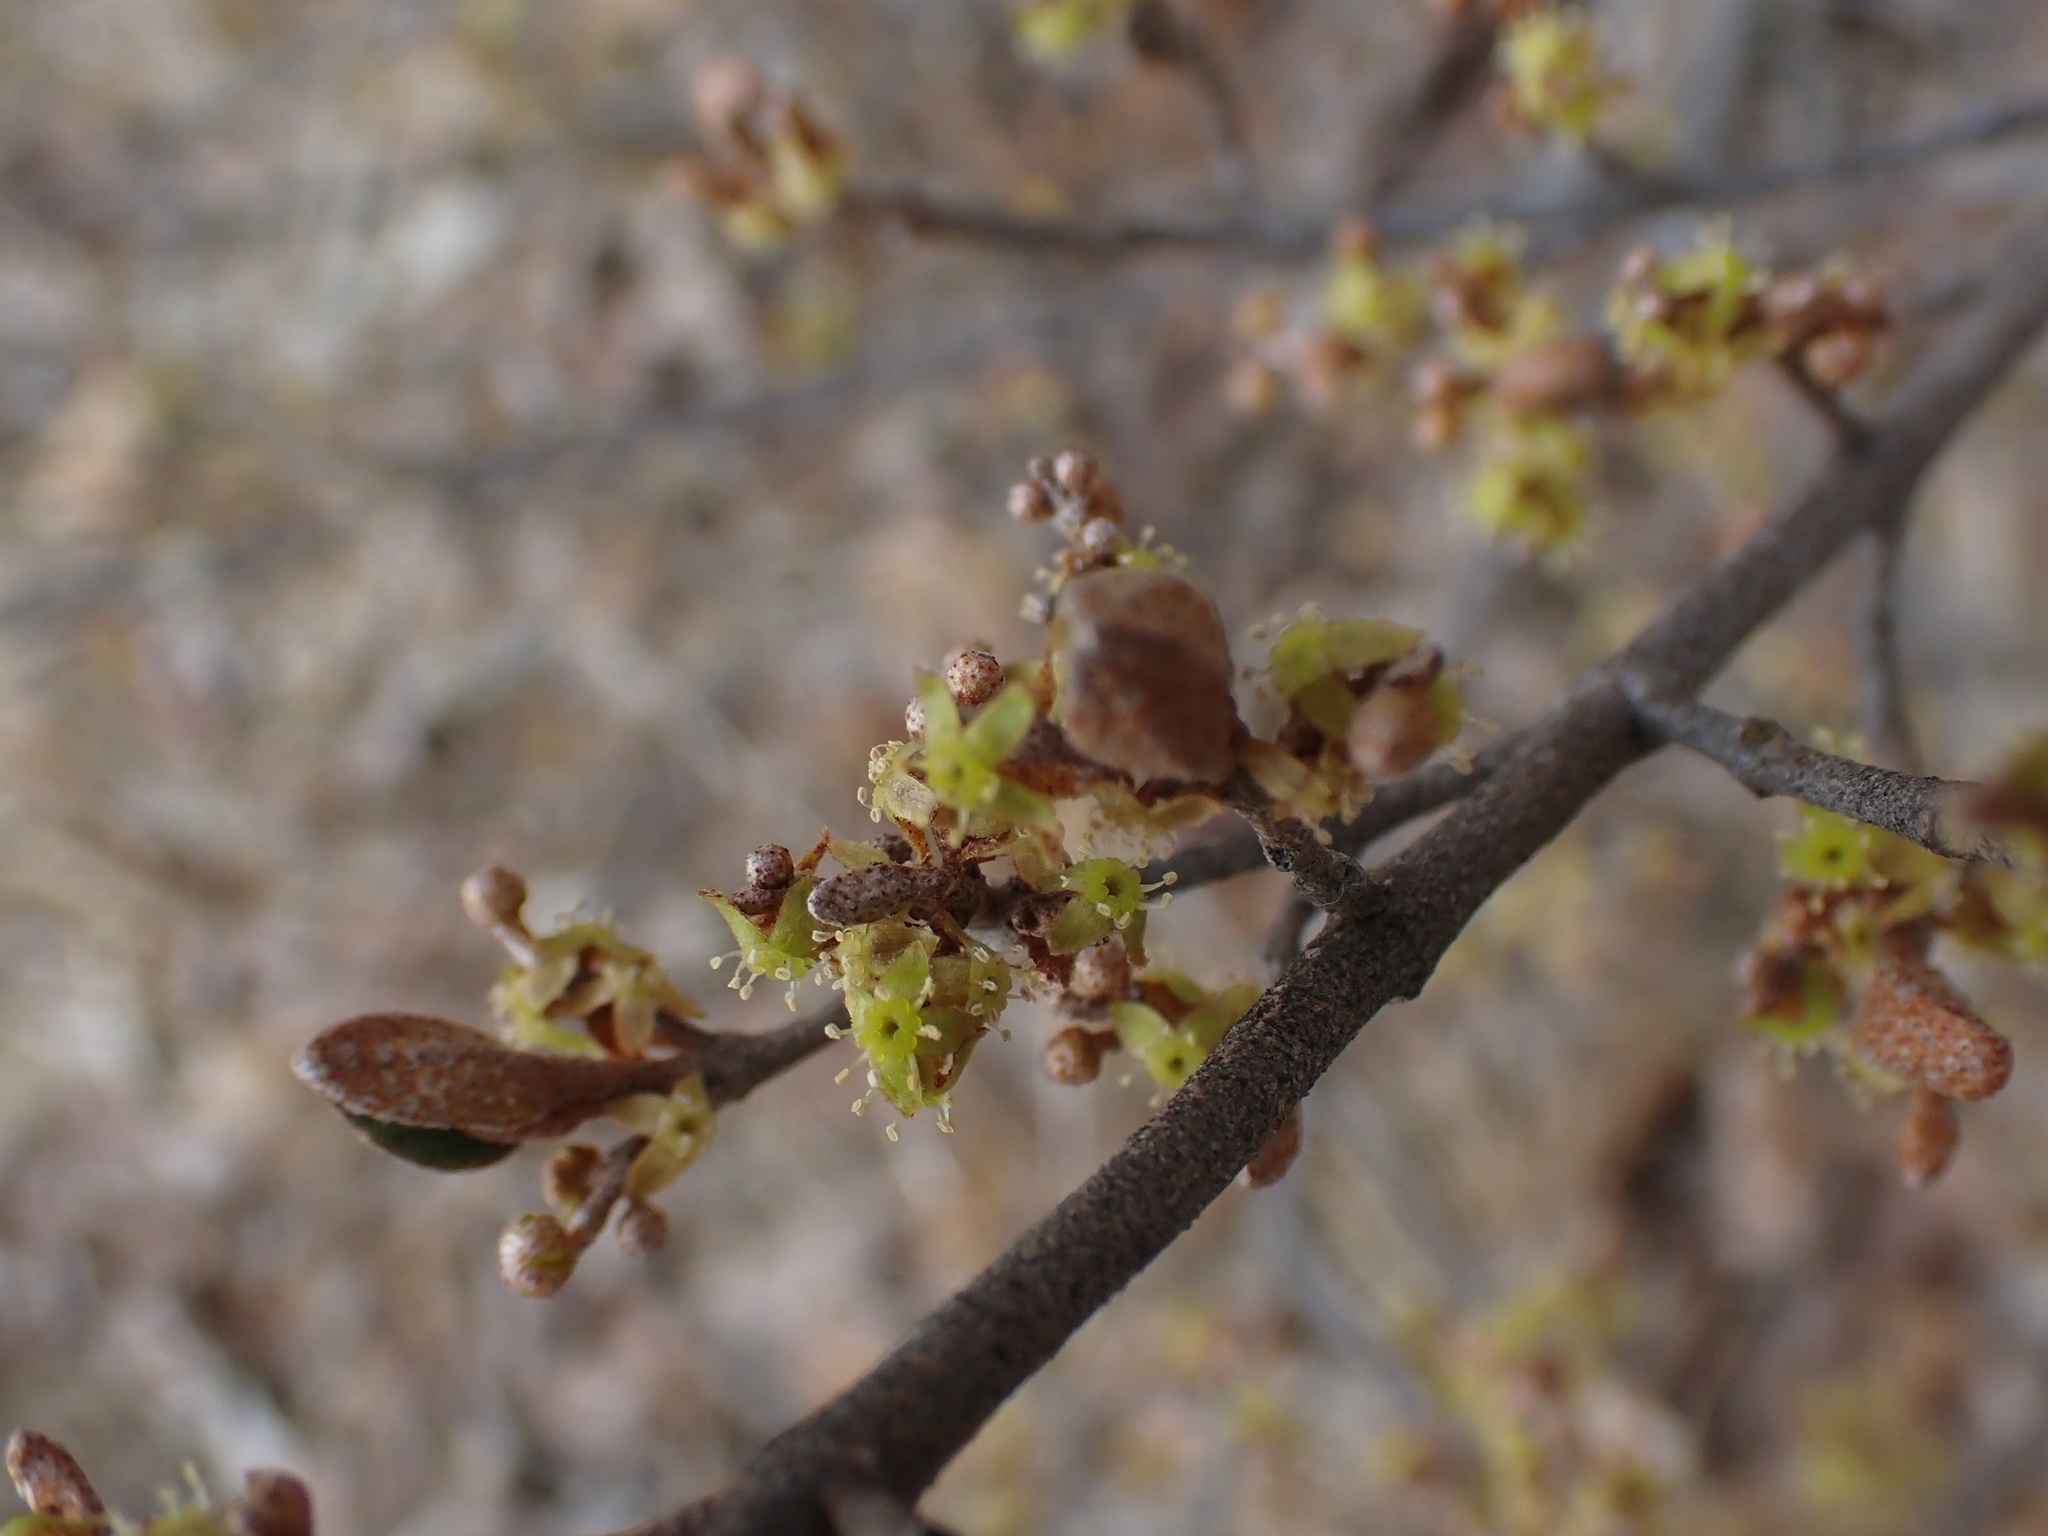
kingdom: Plantae
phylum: Tracheophyta
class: Magnoliopsida
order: Rosales
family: Elaeagnaceae
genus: Shepherdia
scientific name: Shepherdia canadensis
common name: Soapberry
